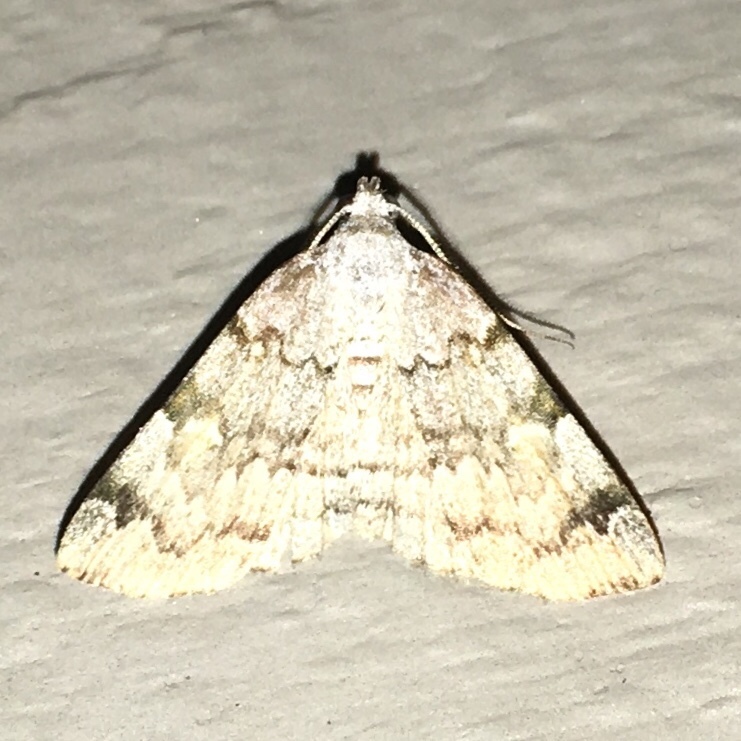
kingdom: Animalia
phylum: Arthropoda
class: Insecta
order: Lepidoptera
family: Erebidae
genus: Idia
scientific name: Idia americalis
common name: American idia moth
